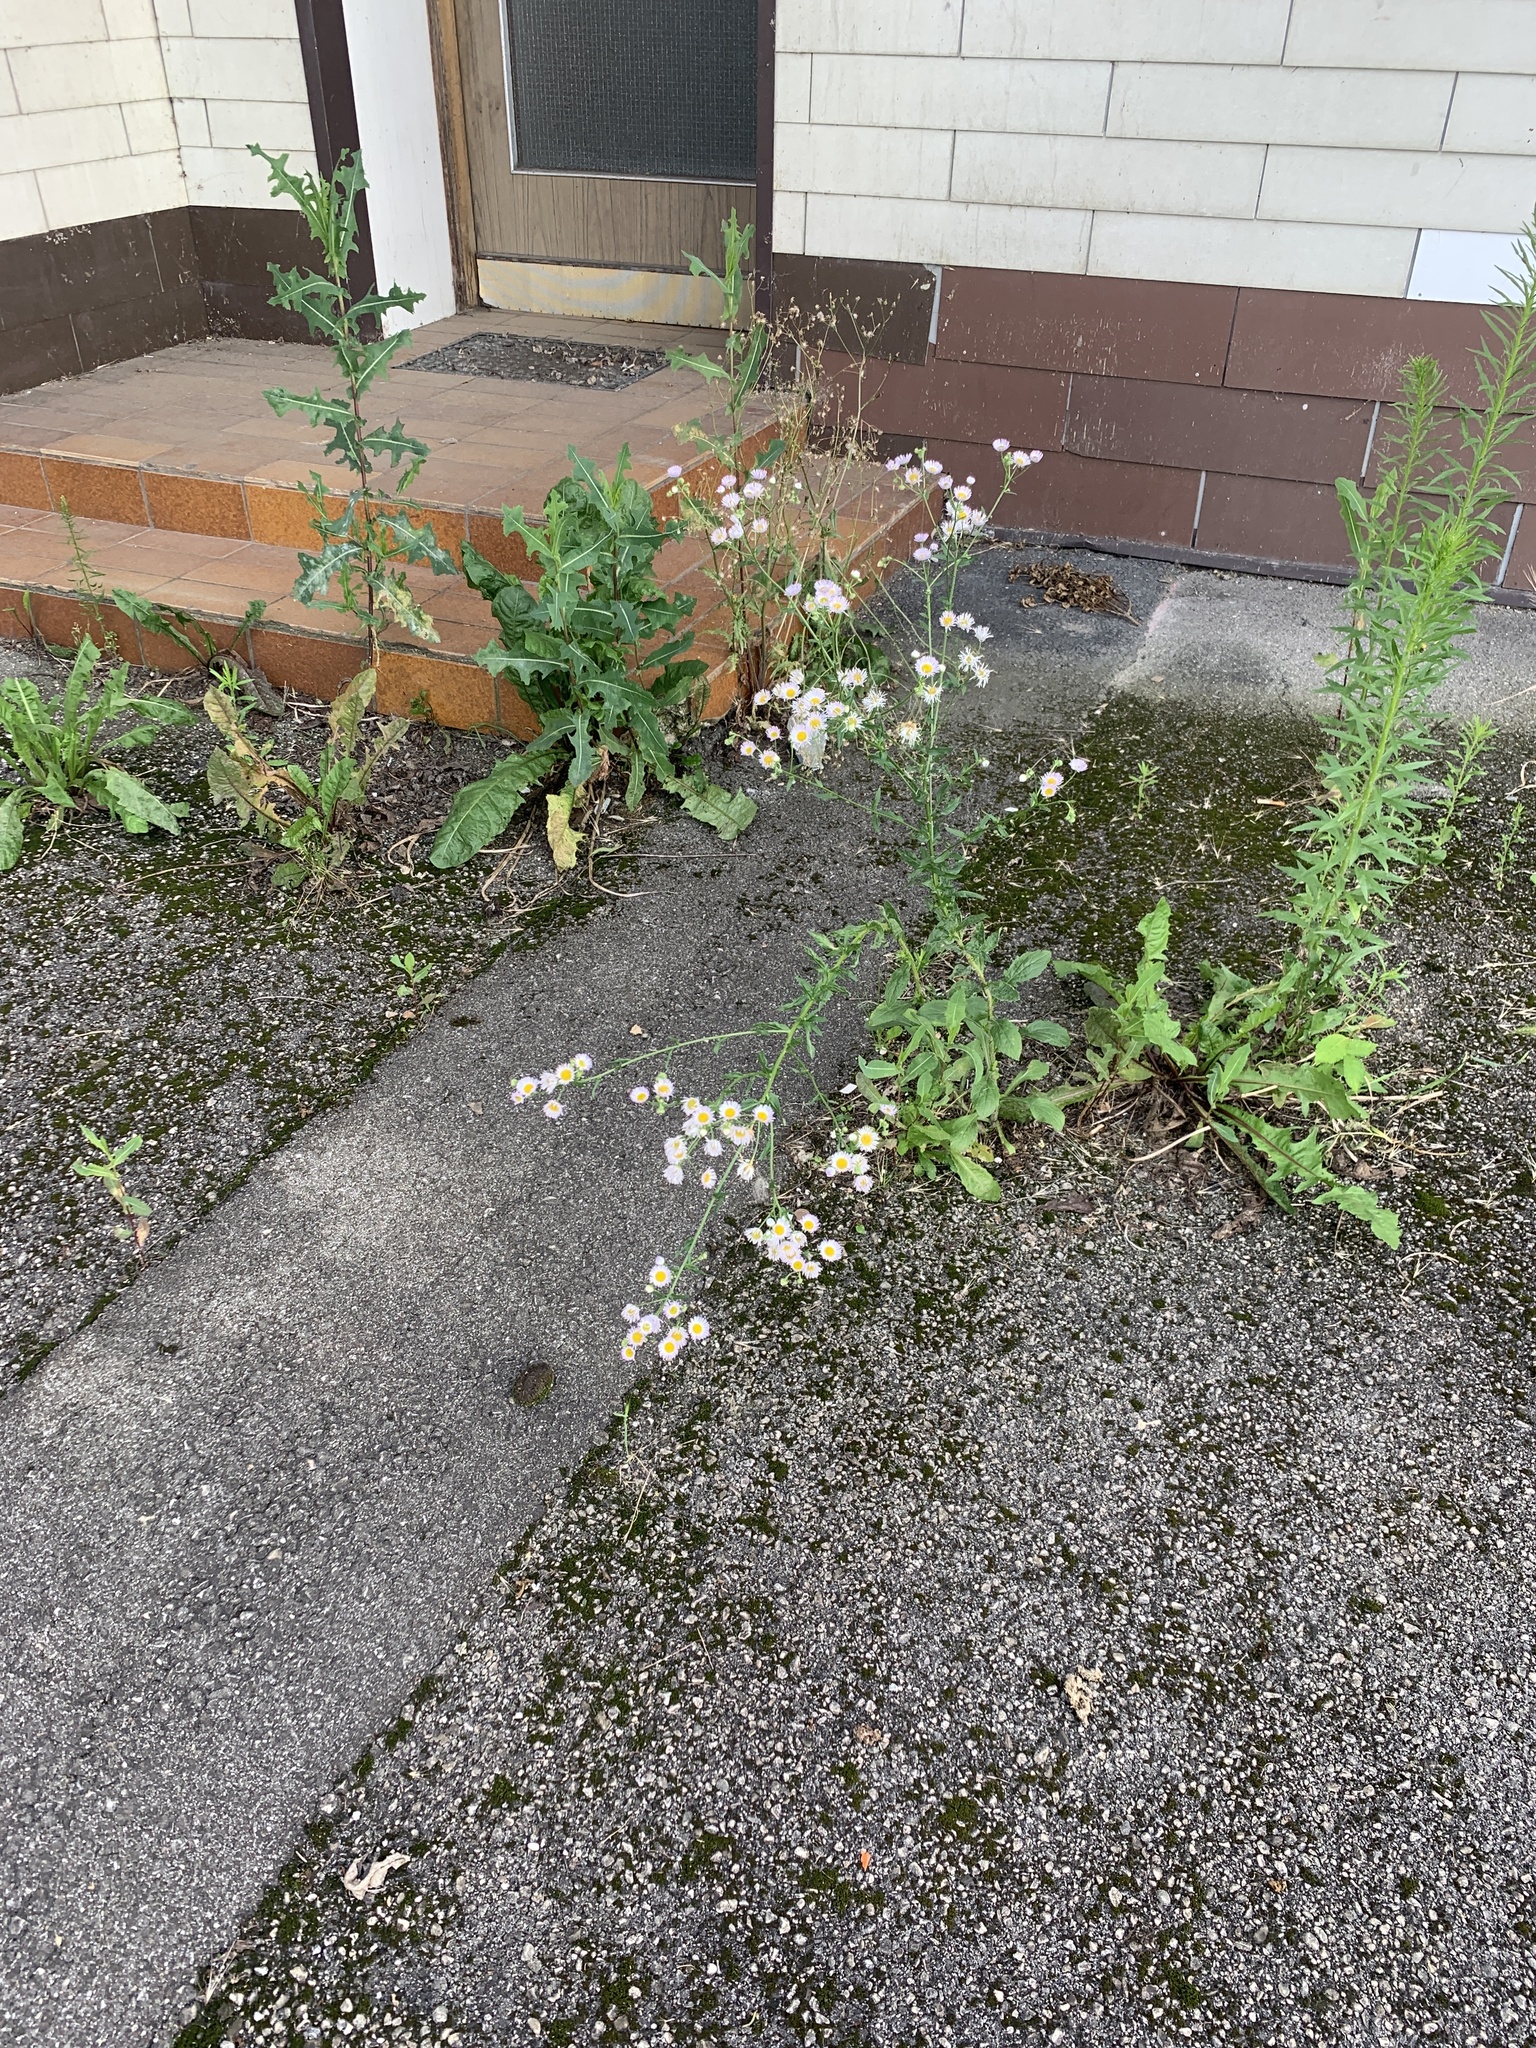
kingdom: Plantae
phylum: Tracheophyta
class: Magnoliopsida
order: Asterales
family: Asteraceae
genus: Erigeron
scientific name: Erigeron annuus
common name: Tall fleabane
